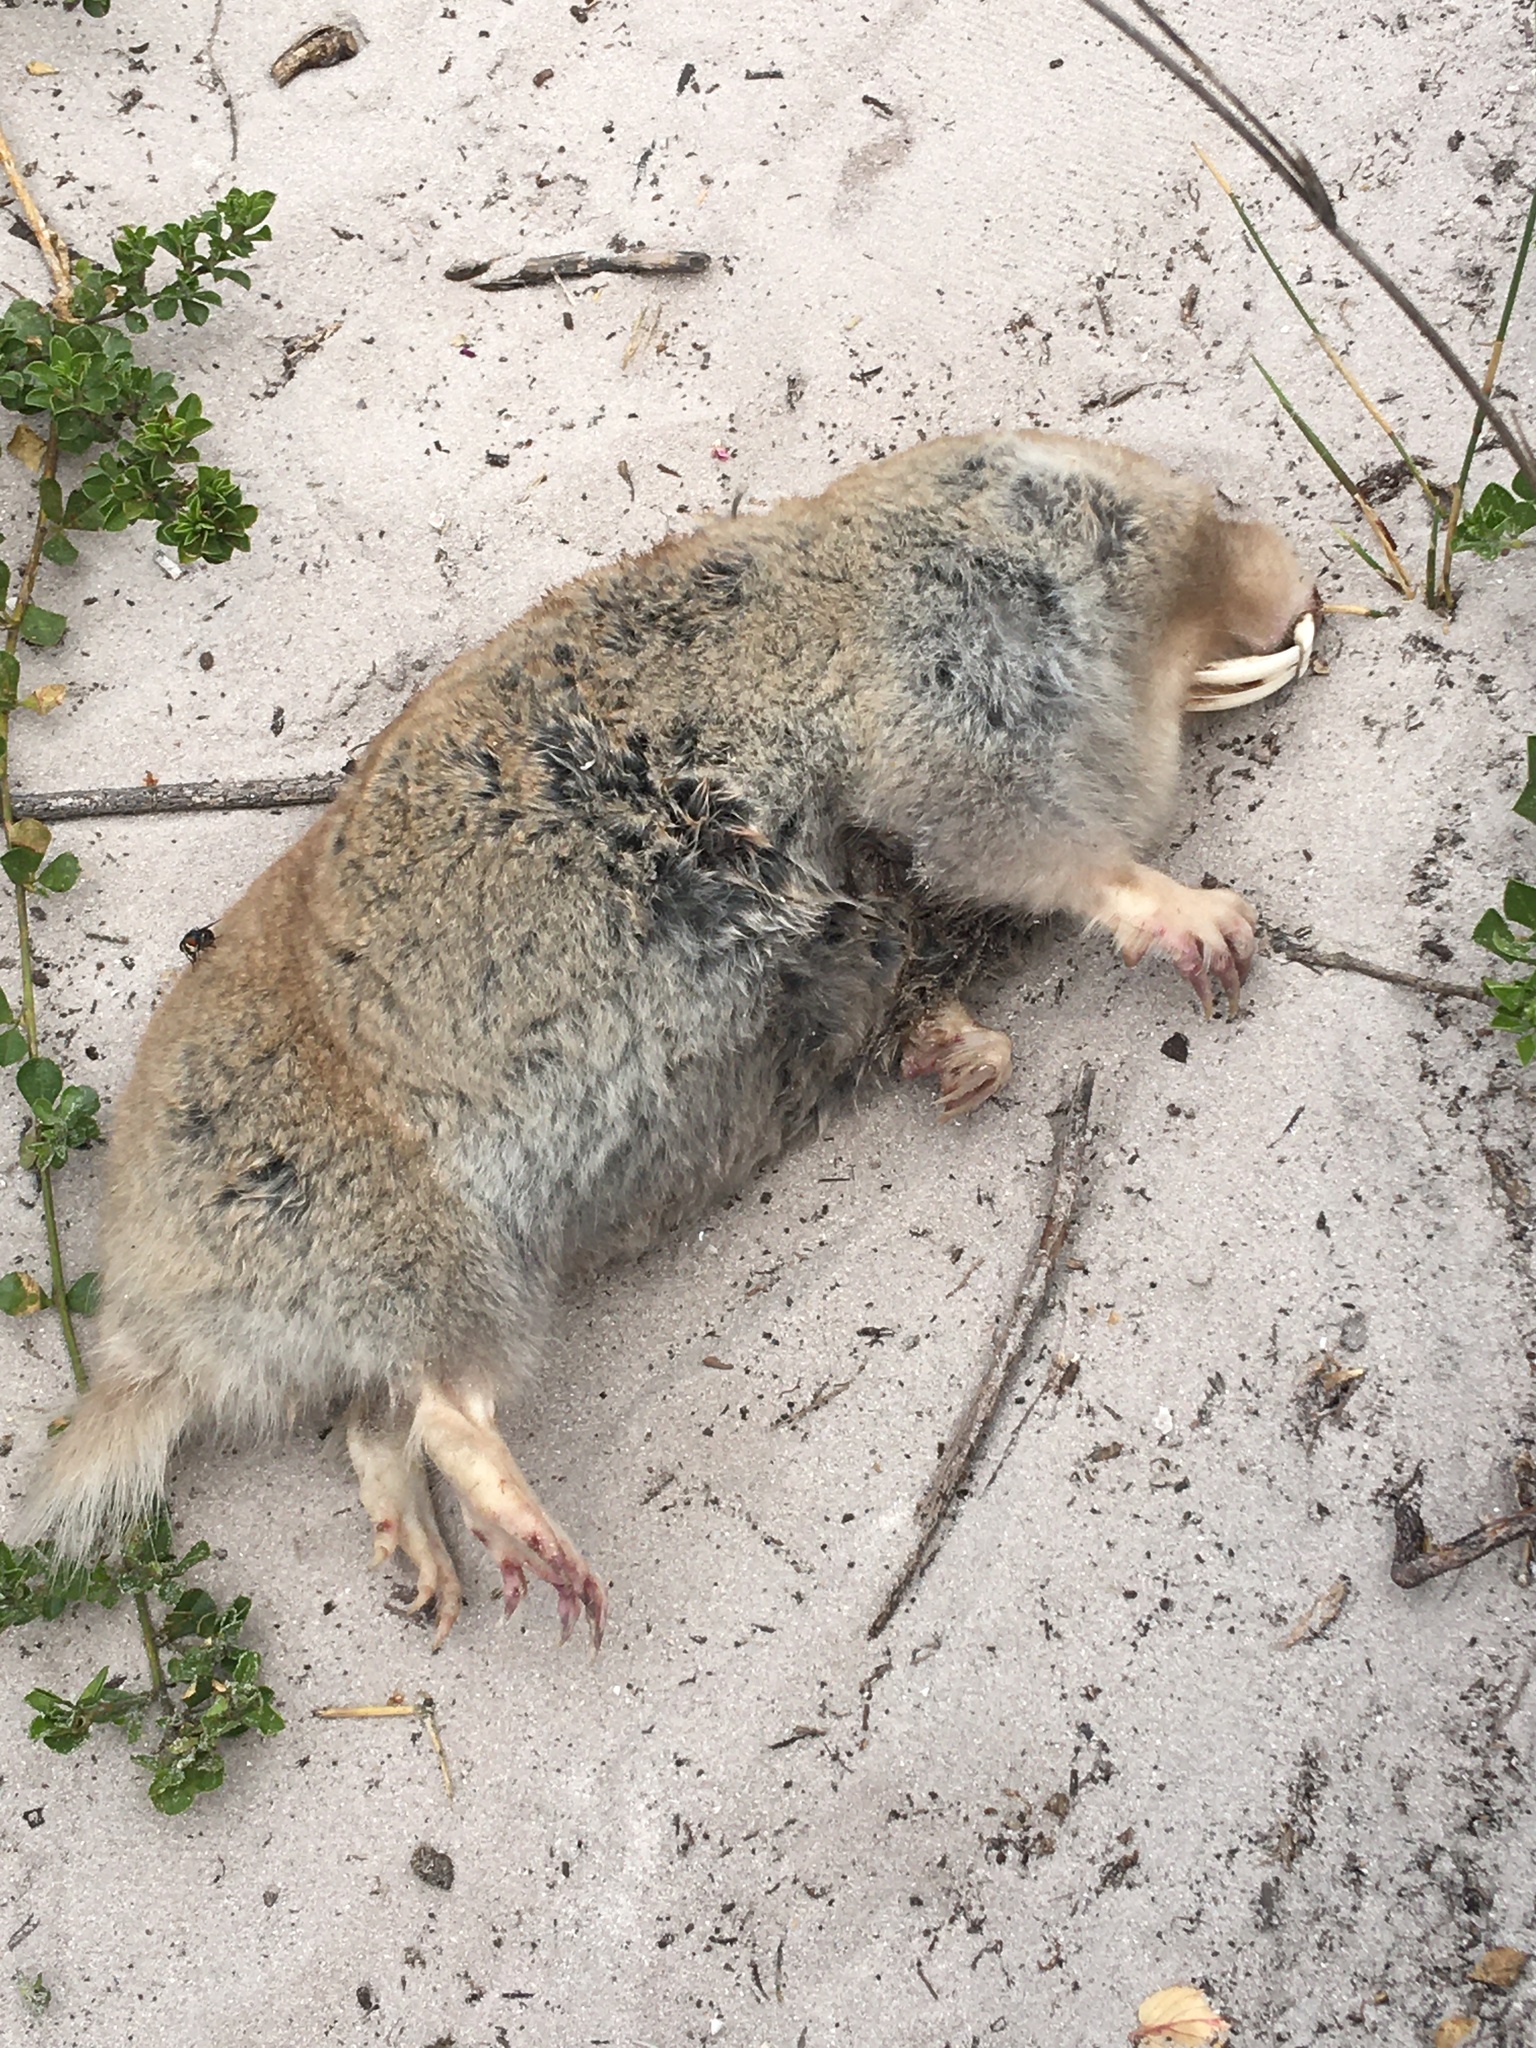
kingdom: Animalia
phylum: Chordata
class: Mammalia
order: Rodentia
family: Bathyergidae
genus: Bathyergus
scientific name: Bathyergus suillus
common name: Cape dune mole rat
